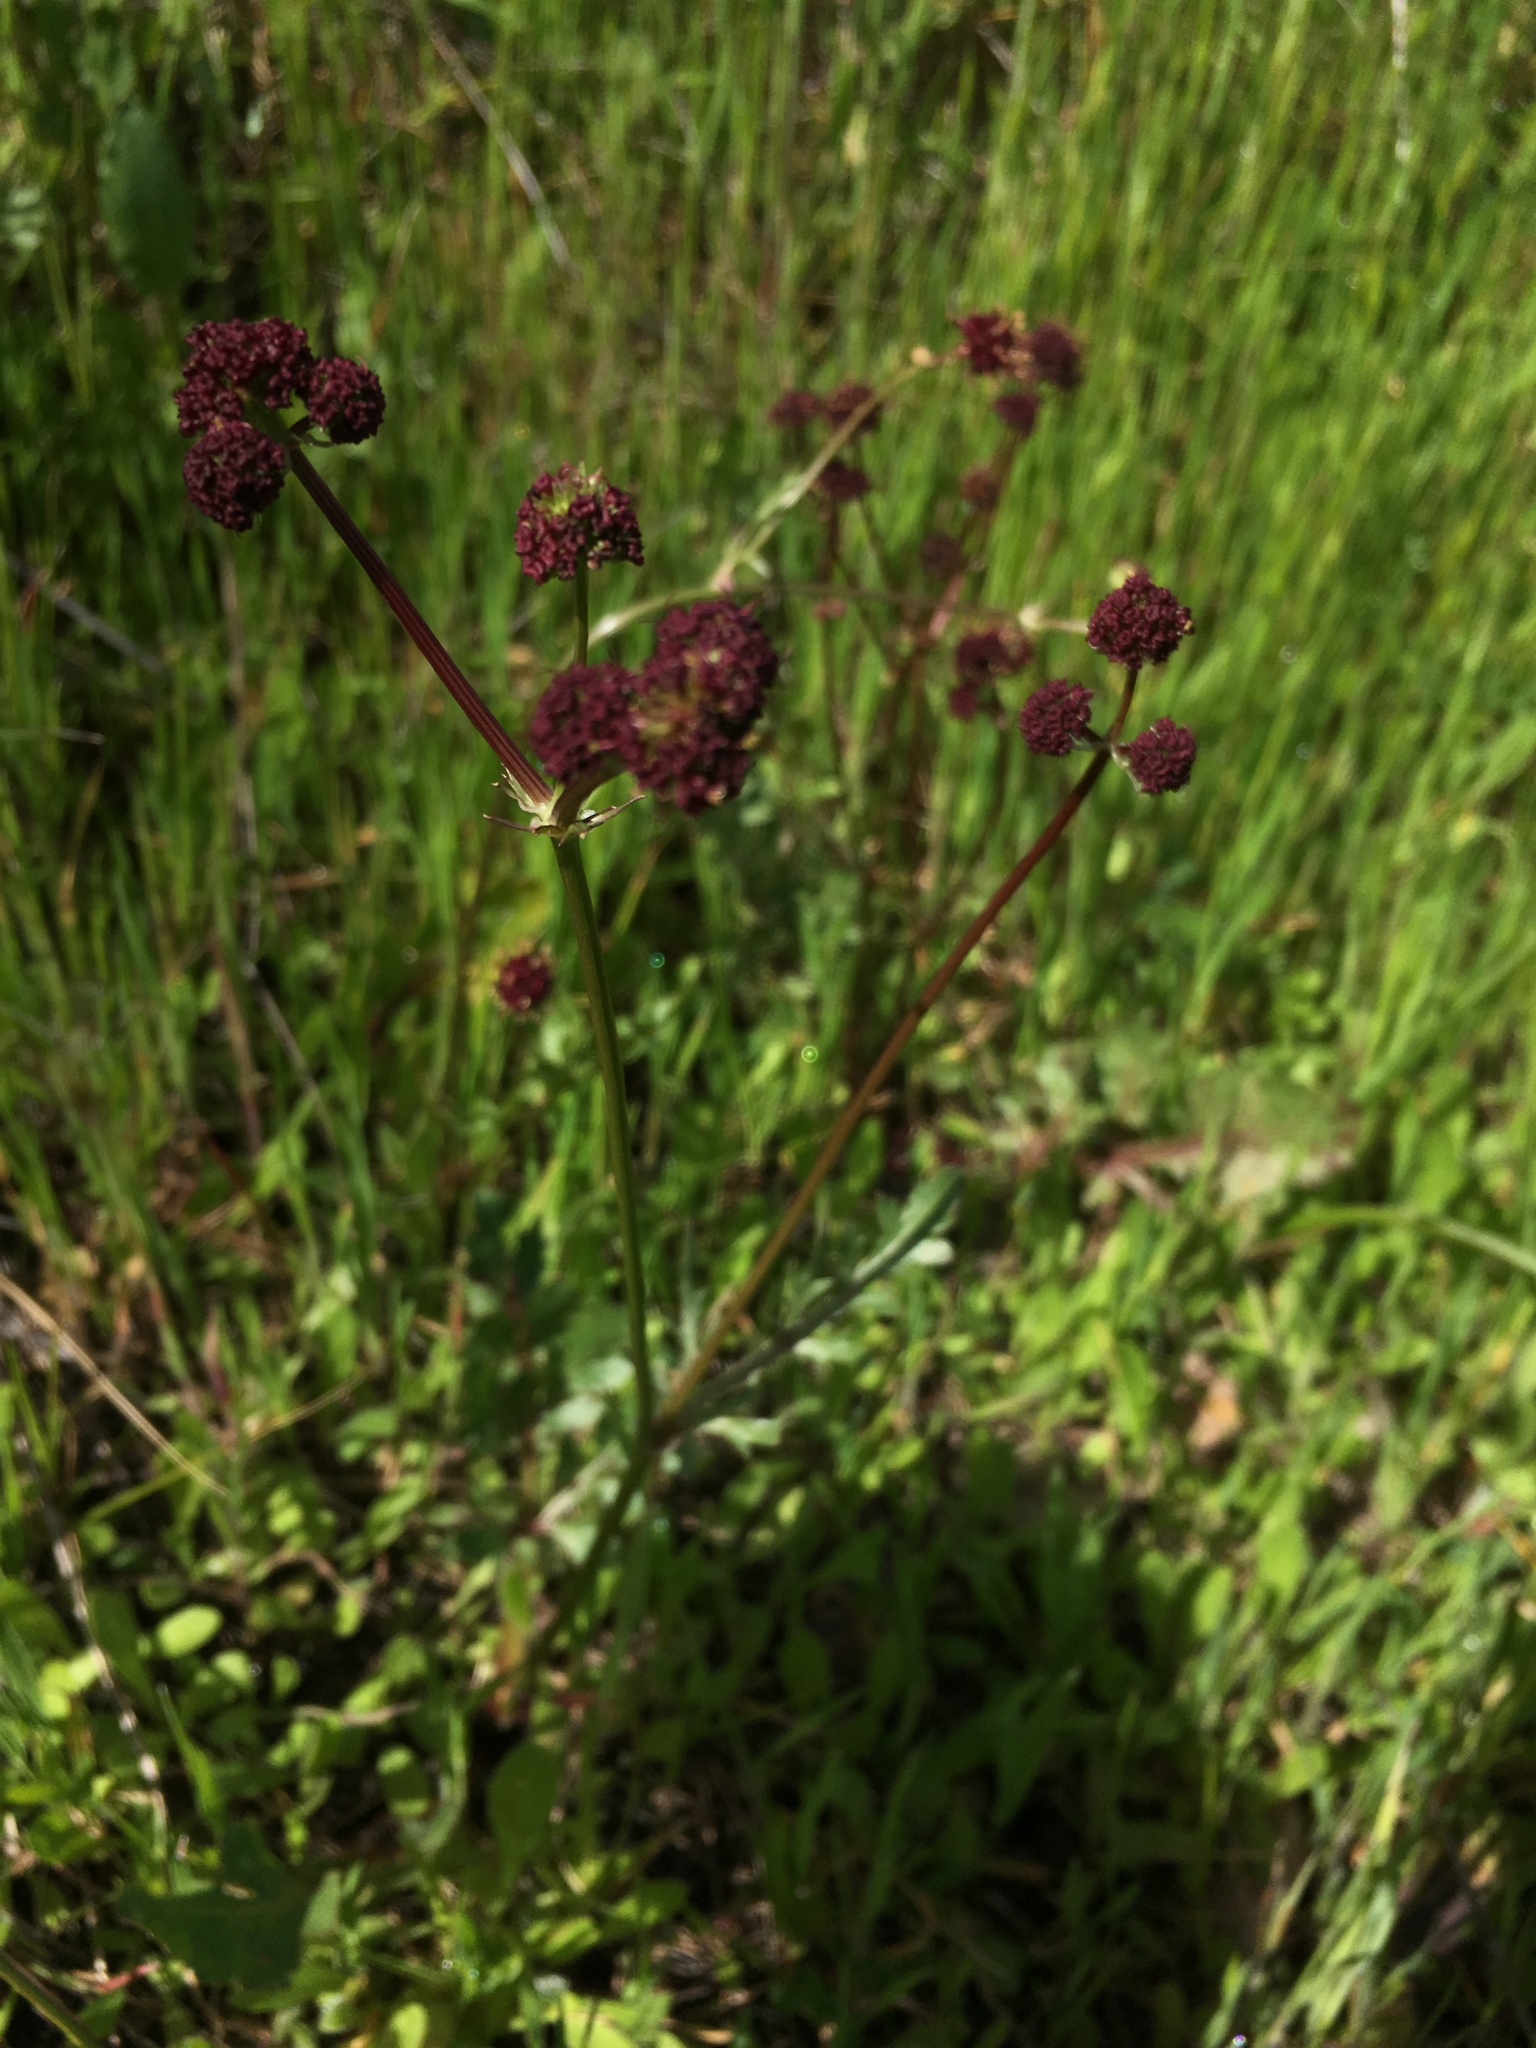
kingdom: Plantae
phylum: Tracheophyta
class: Magnoliopsida
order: Apiales
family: Apiaceae
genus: Sanicula
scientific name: Sanicula bipinnatifida
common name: Shoe-buttons
